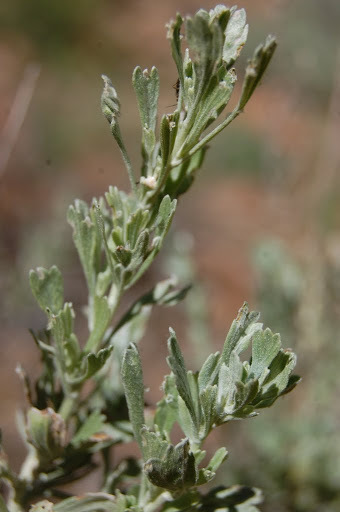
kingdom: Plantae
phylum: Tracheophyta
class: Magnoliopsida
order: Asterales
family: Asteraceae
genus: Artemisia
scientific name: Artemisia tridentata
